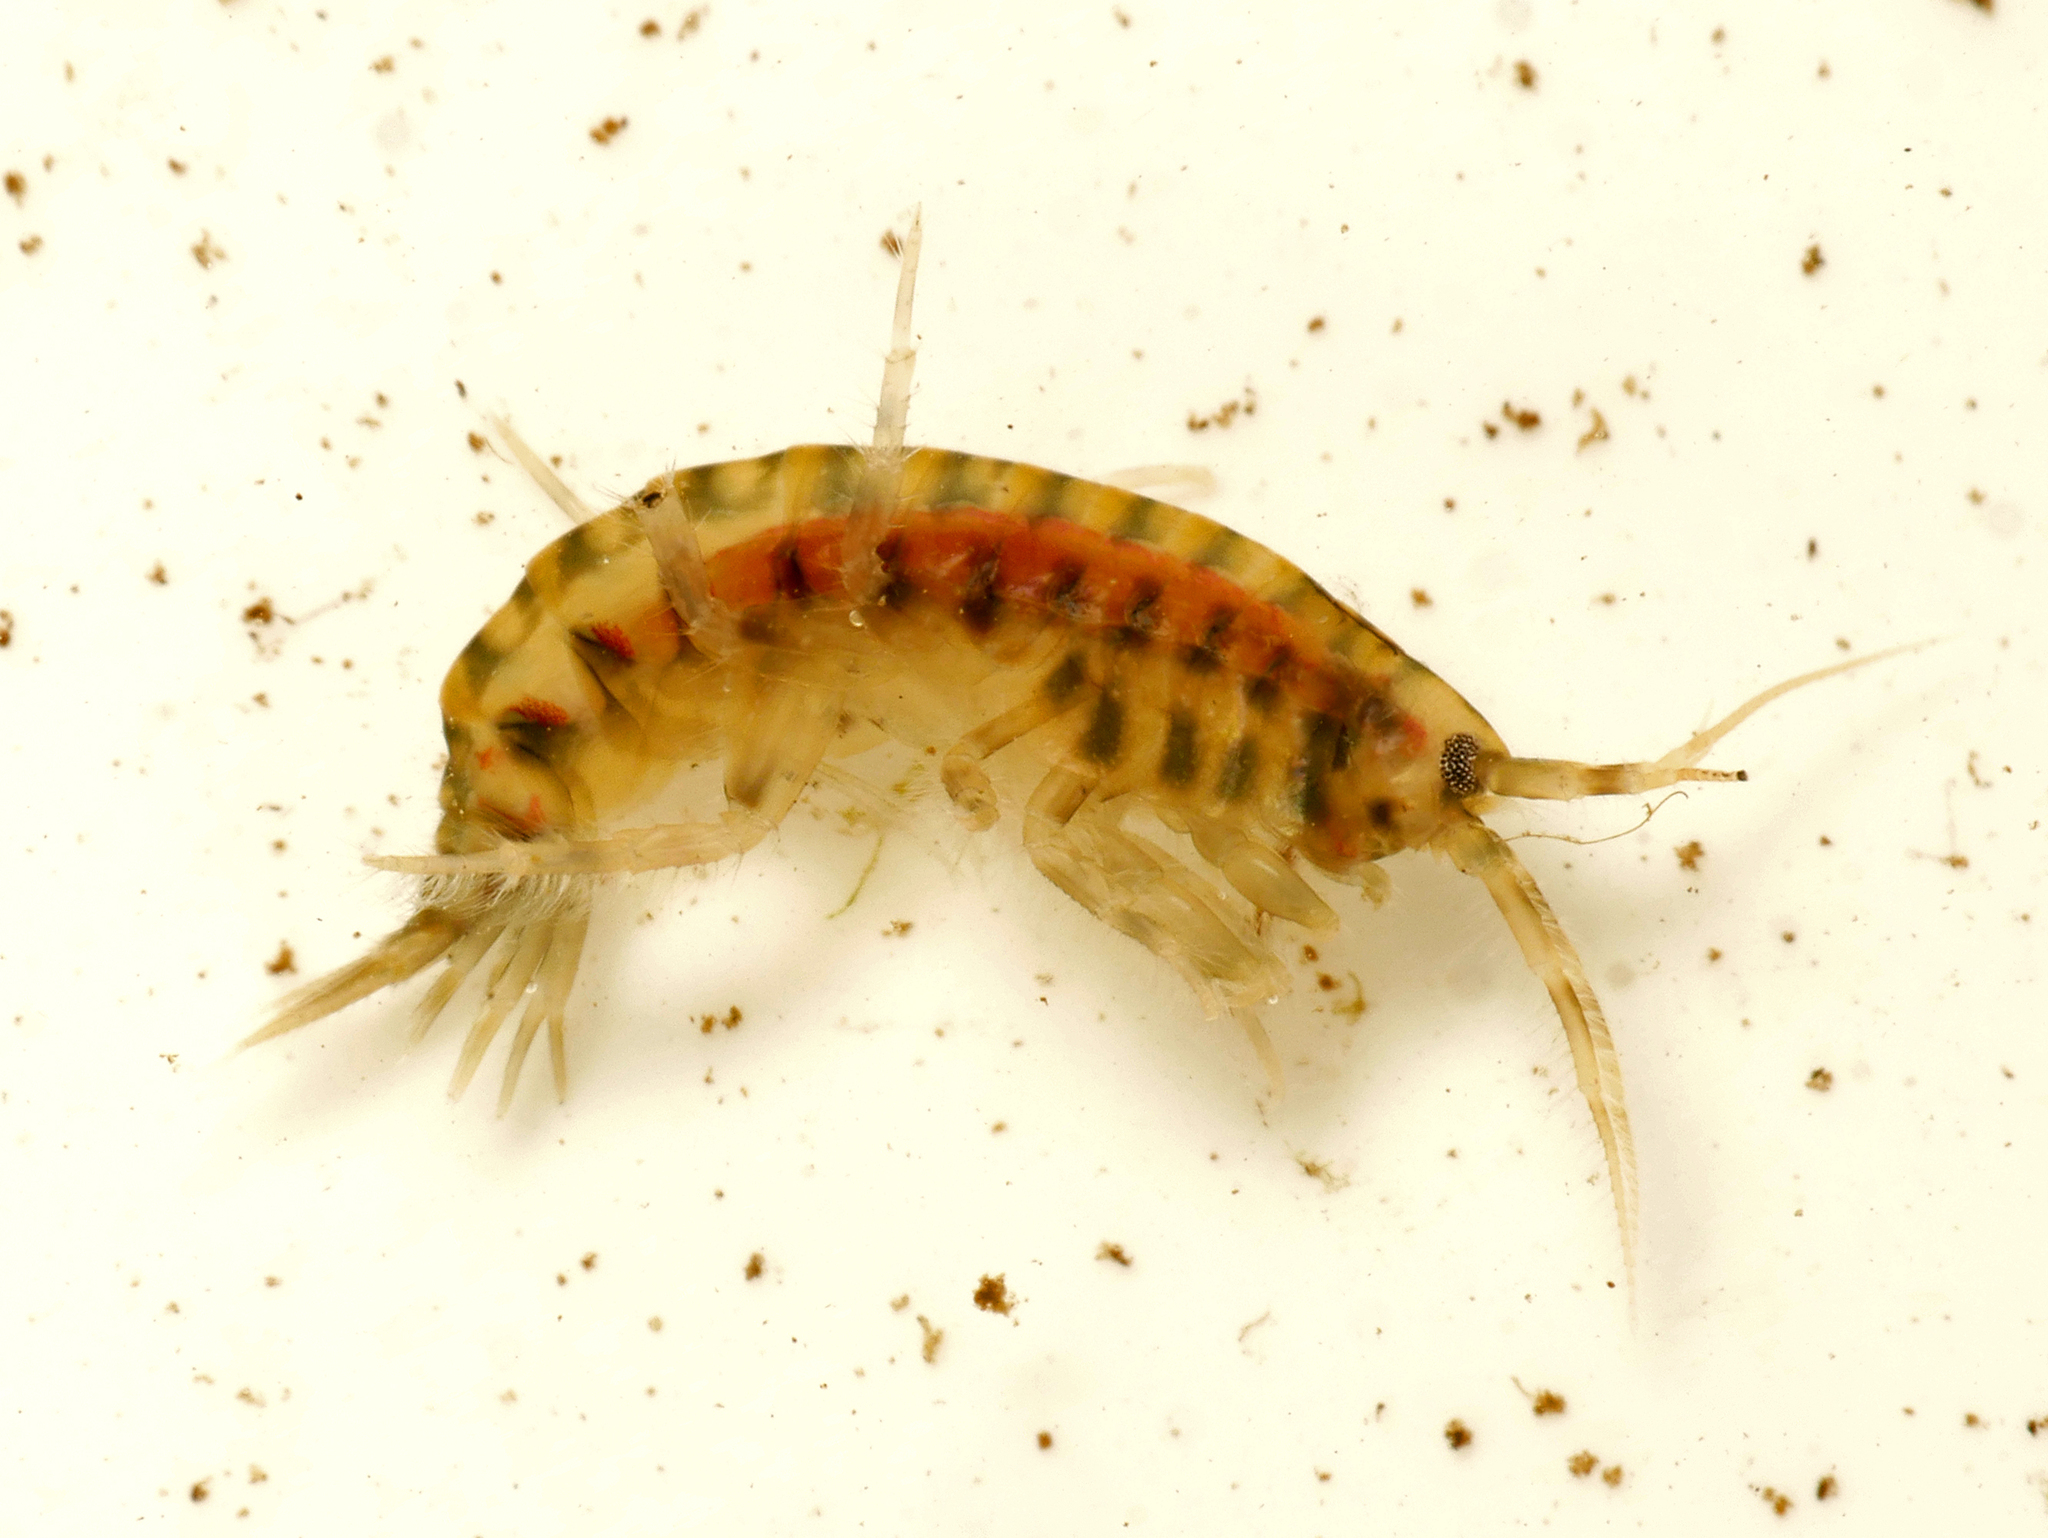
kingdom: Animalia
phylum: Arthropoda
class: Malacostraca
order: Amphipoda
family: Gammaridae
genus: Gammarus
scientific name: Gammarus zaddachi
